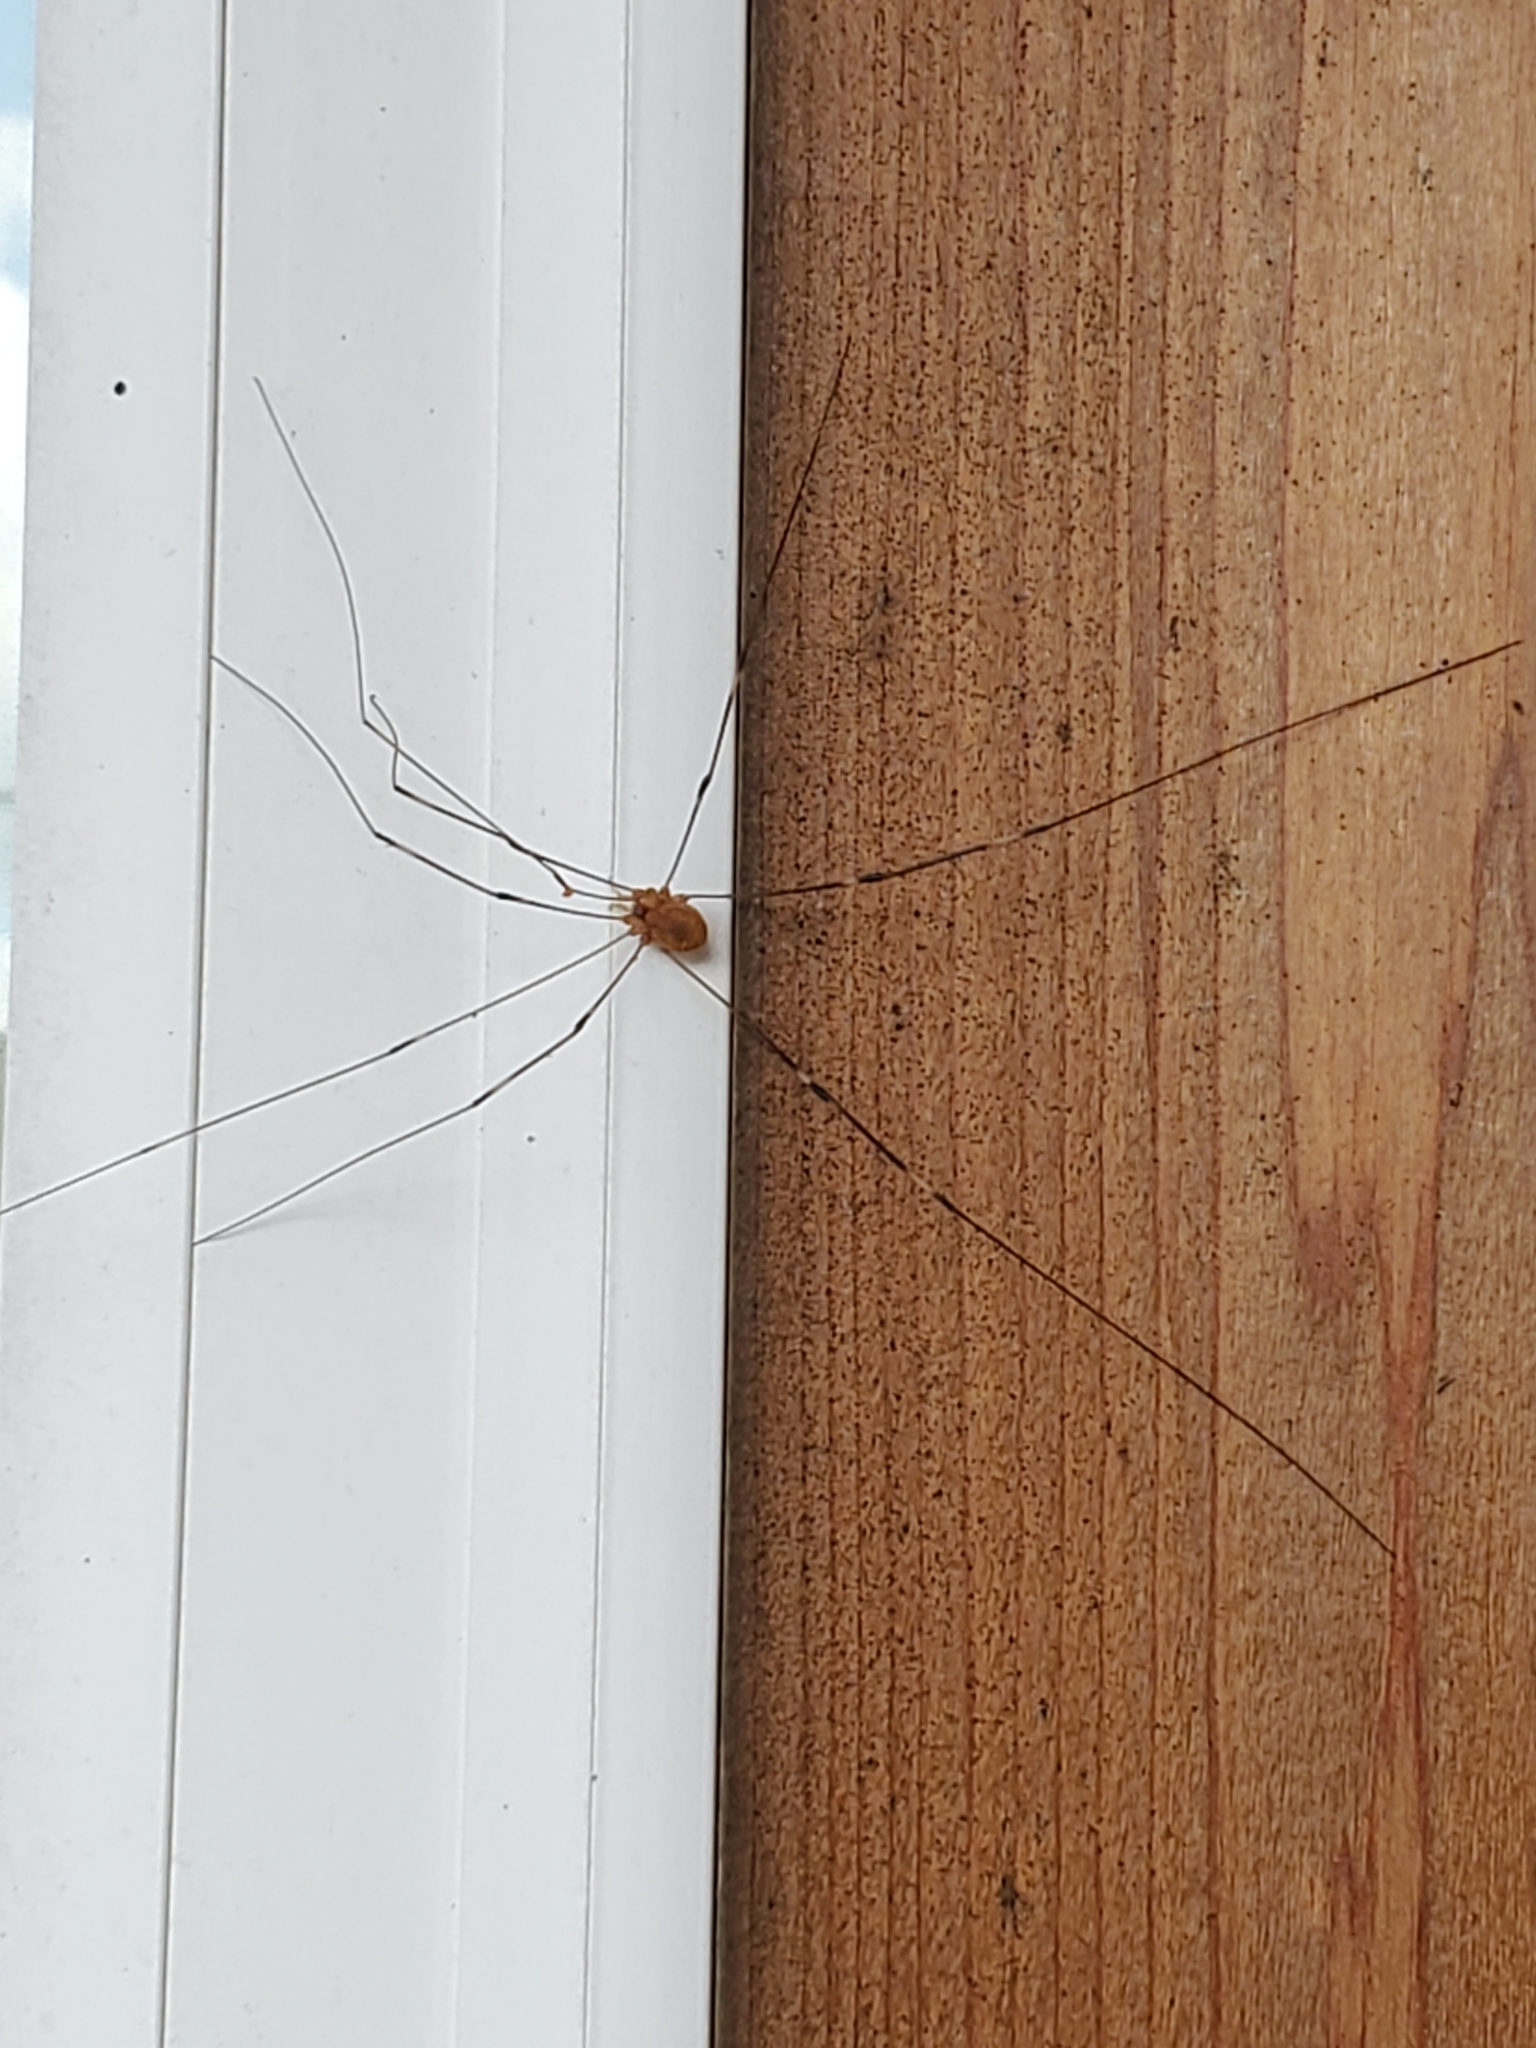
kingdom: Animalia
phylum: Arthropoda
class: Arachnida
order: Opiliones
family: Sclerosomatidae
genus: Leiobunum
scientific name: Leiobunum townsendi
